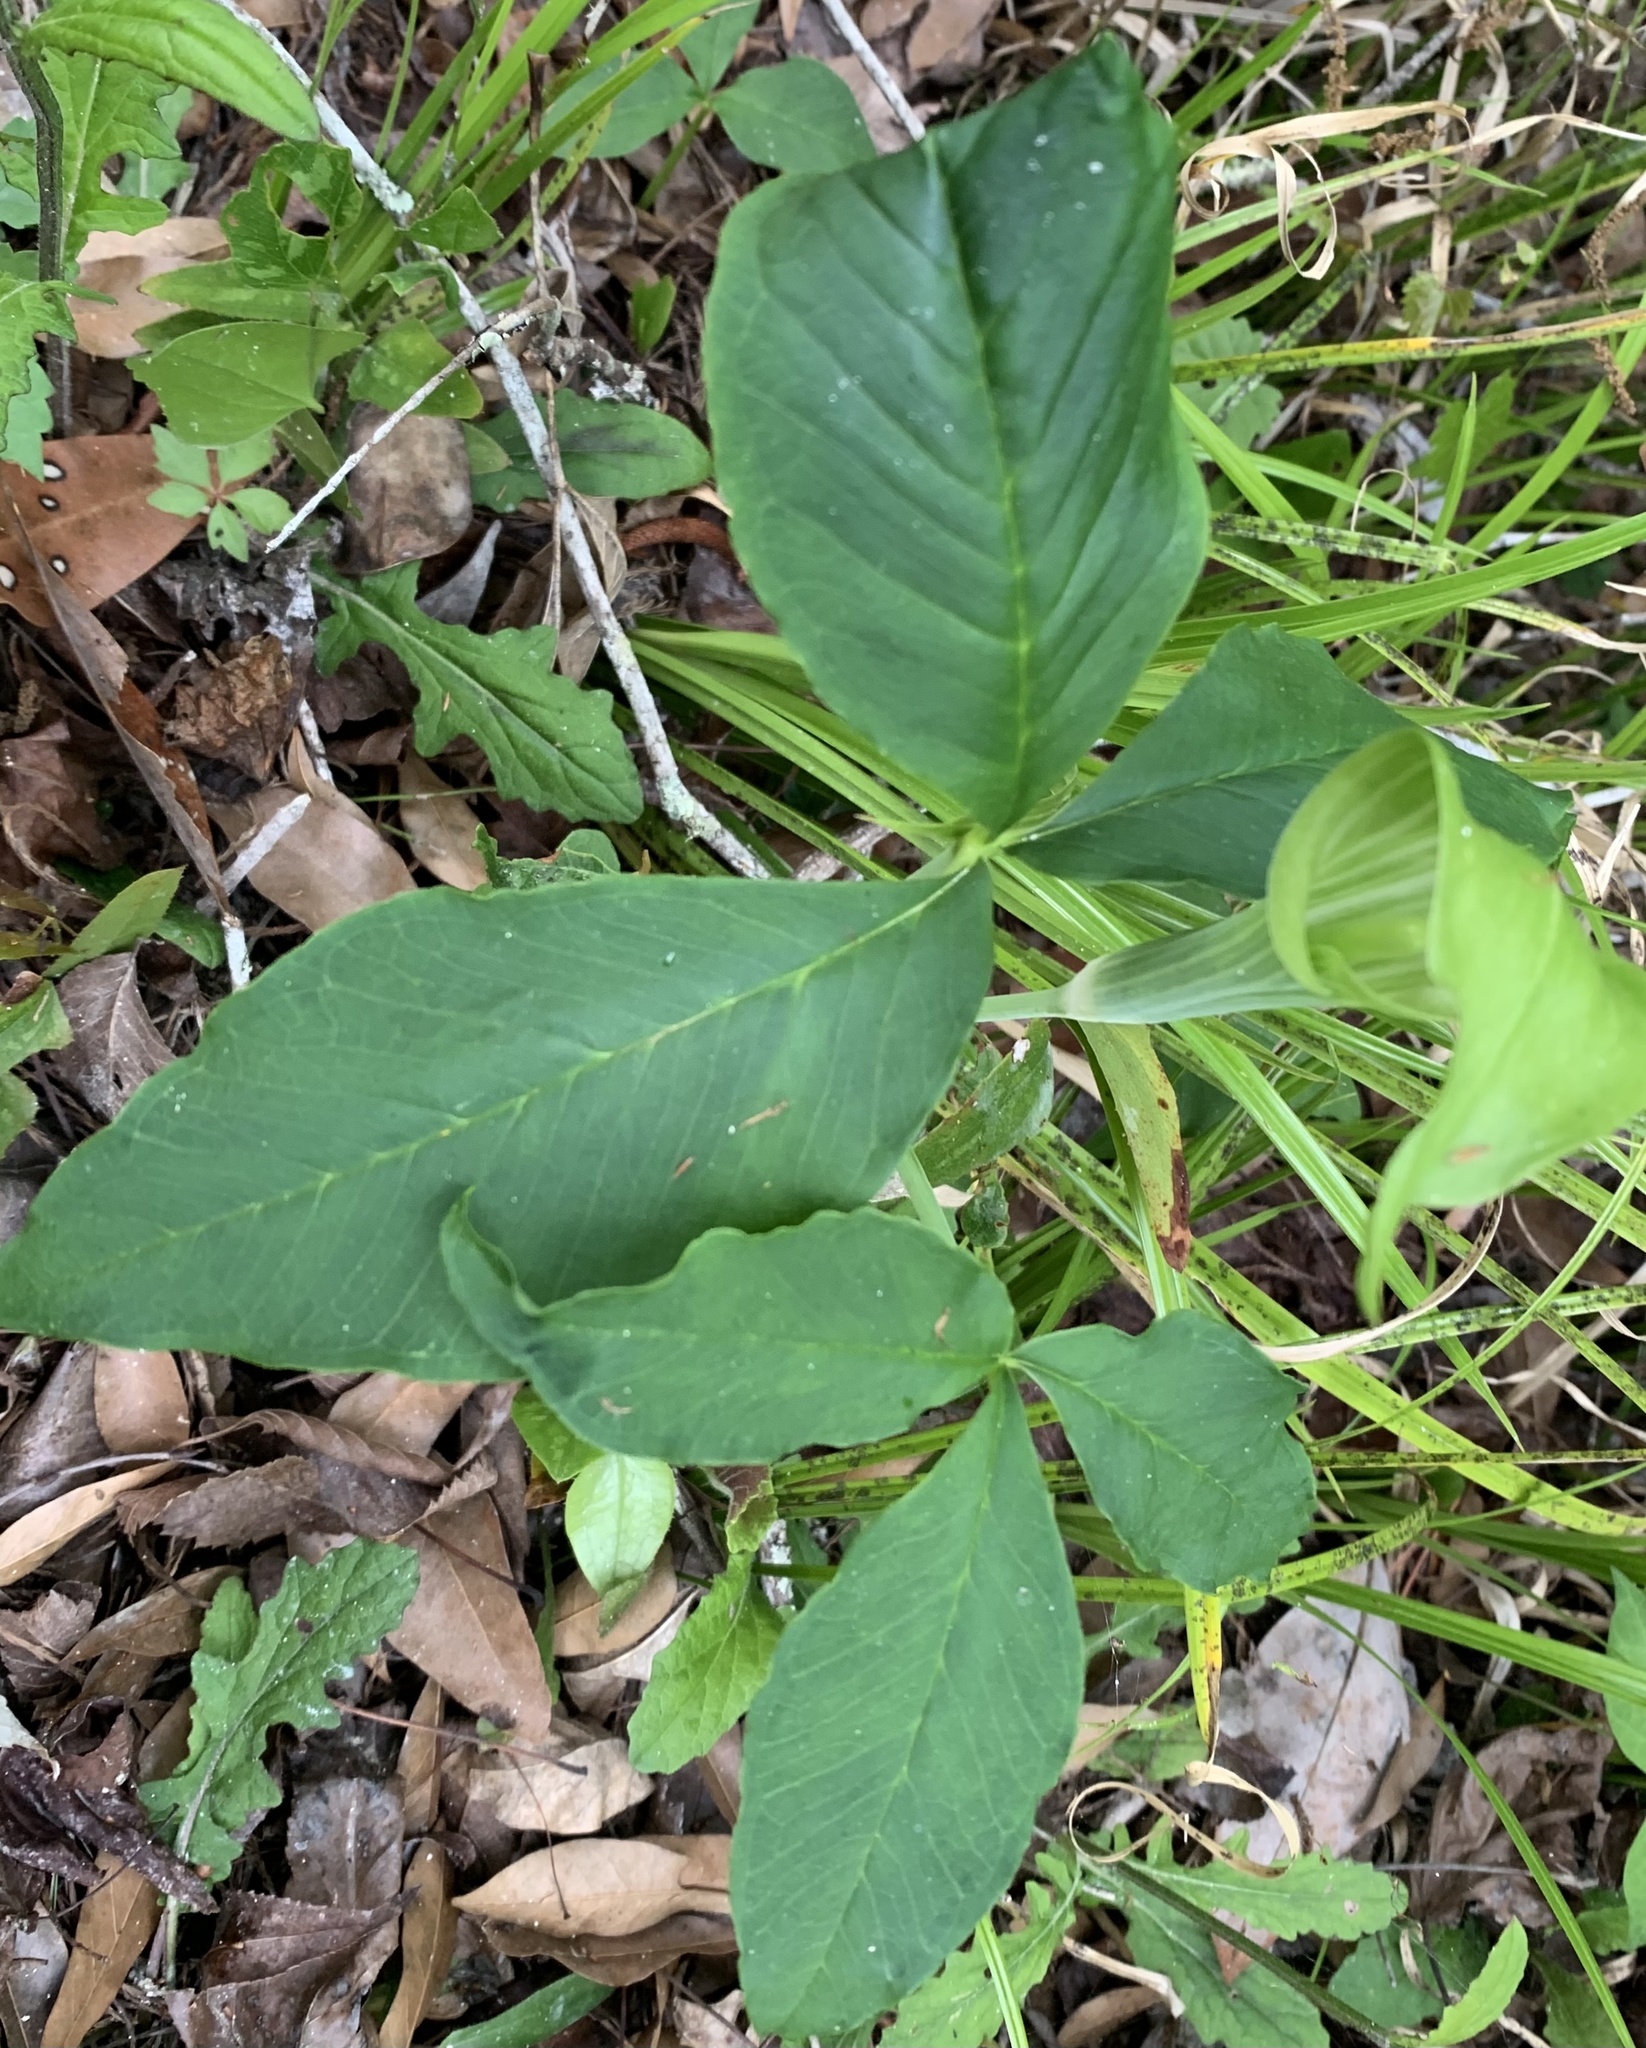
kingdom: Plantae
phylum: Tracheophyta
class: Liliopsida
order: Alismatales
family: Araceae
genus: Arisaema
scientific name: Arisaema acuminatum
